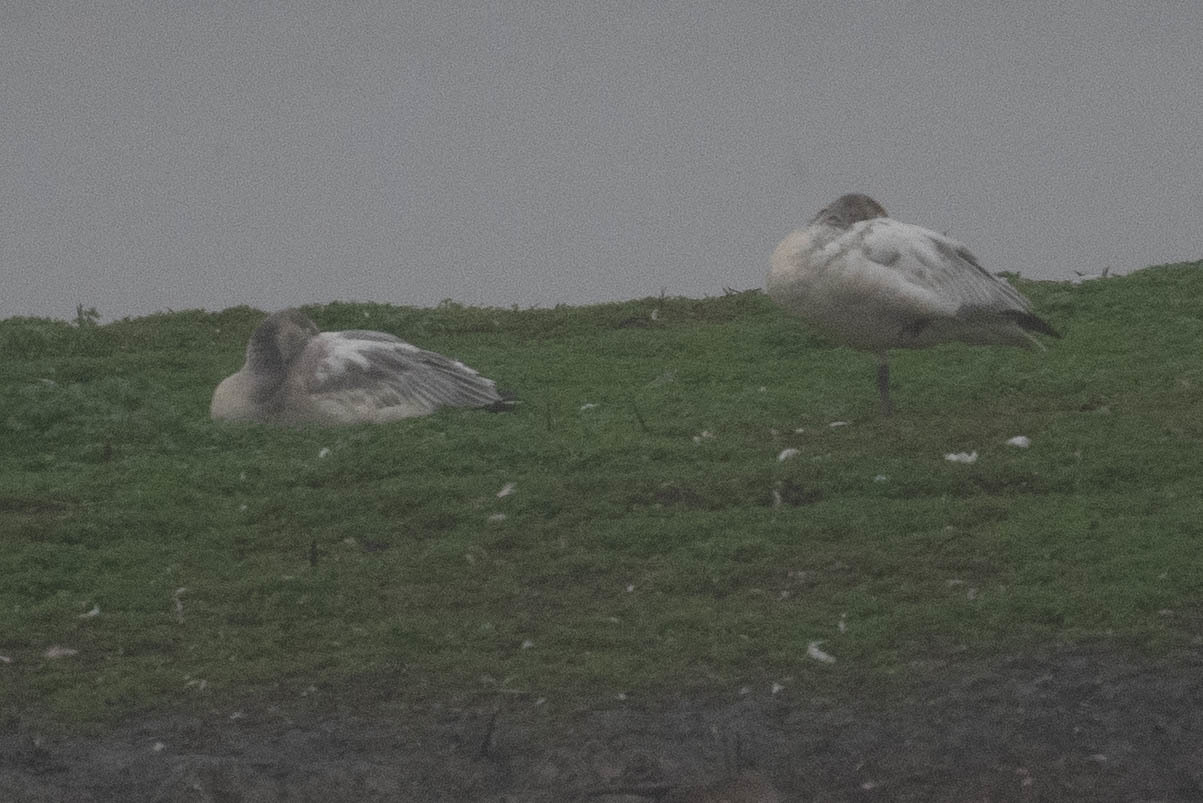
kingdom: Animalia
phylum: Chordata
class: Aves
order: Anseriformes
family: Anatidae
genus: Anser
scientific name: Anser caerulescens
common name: Snow goose
